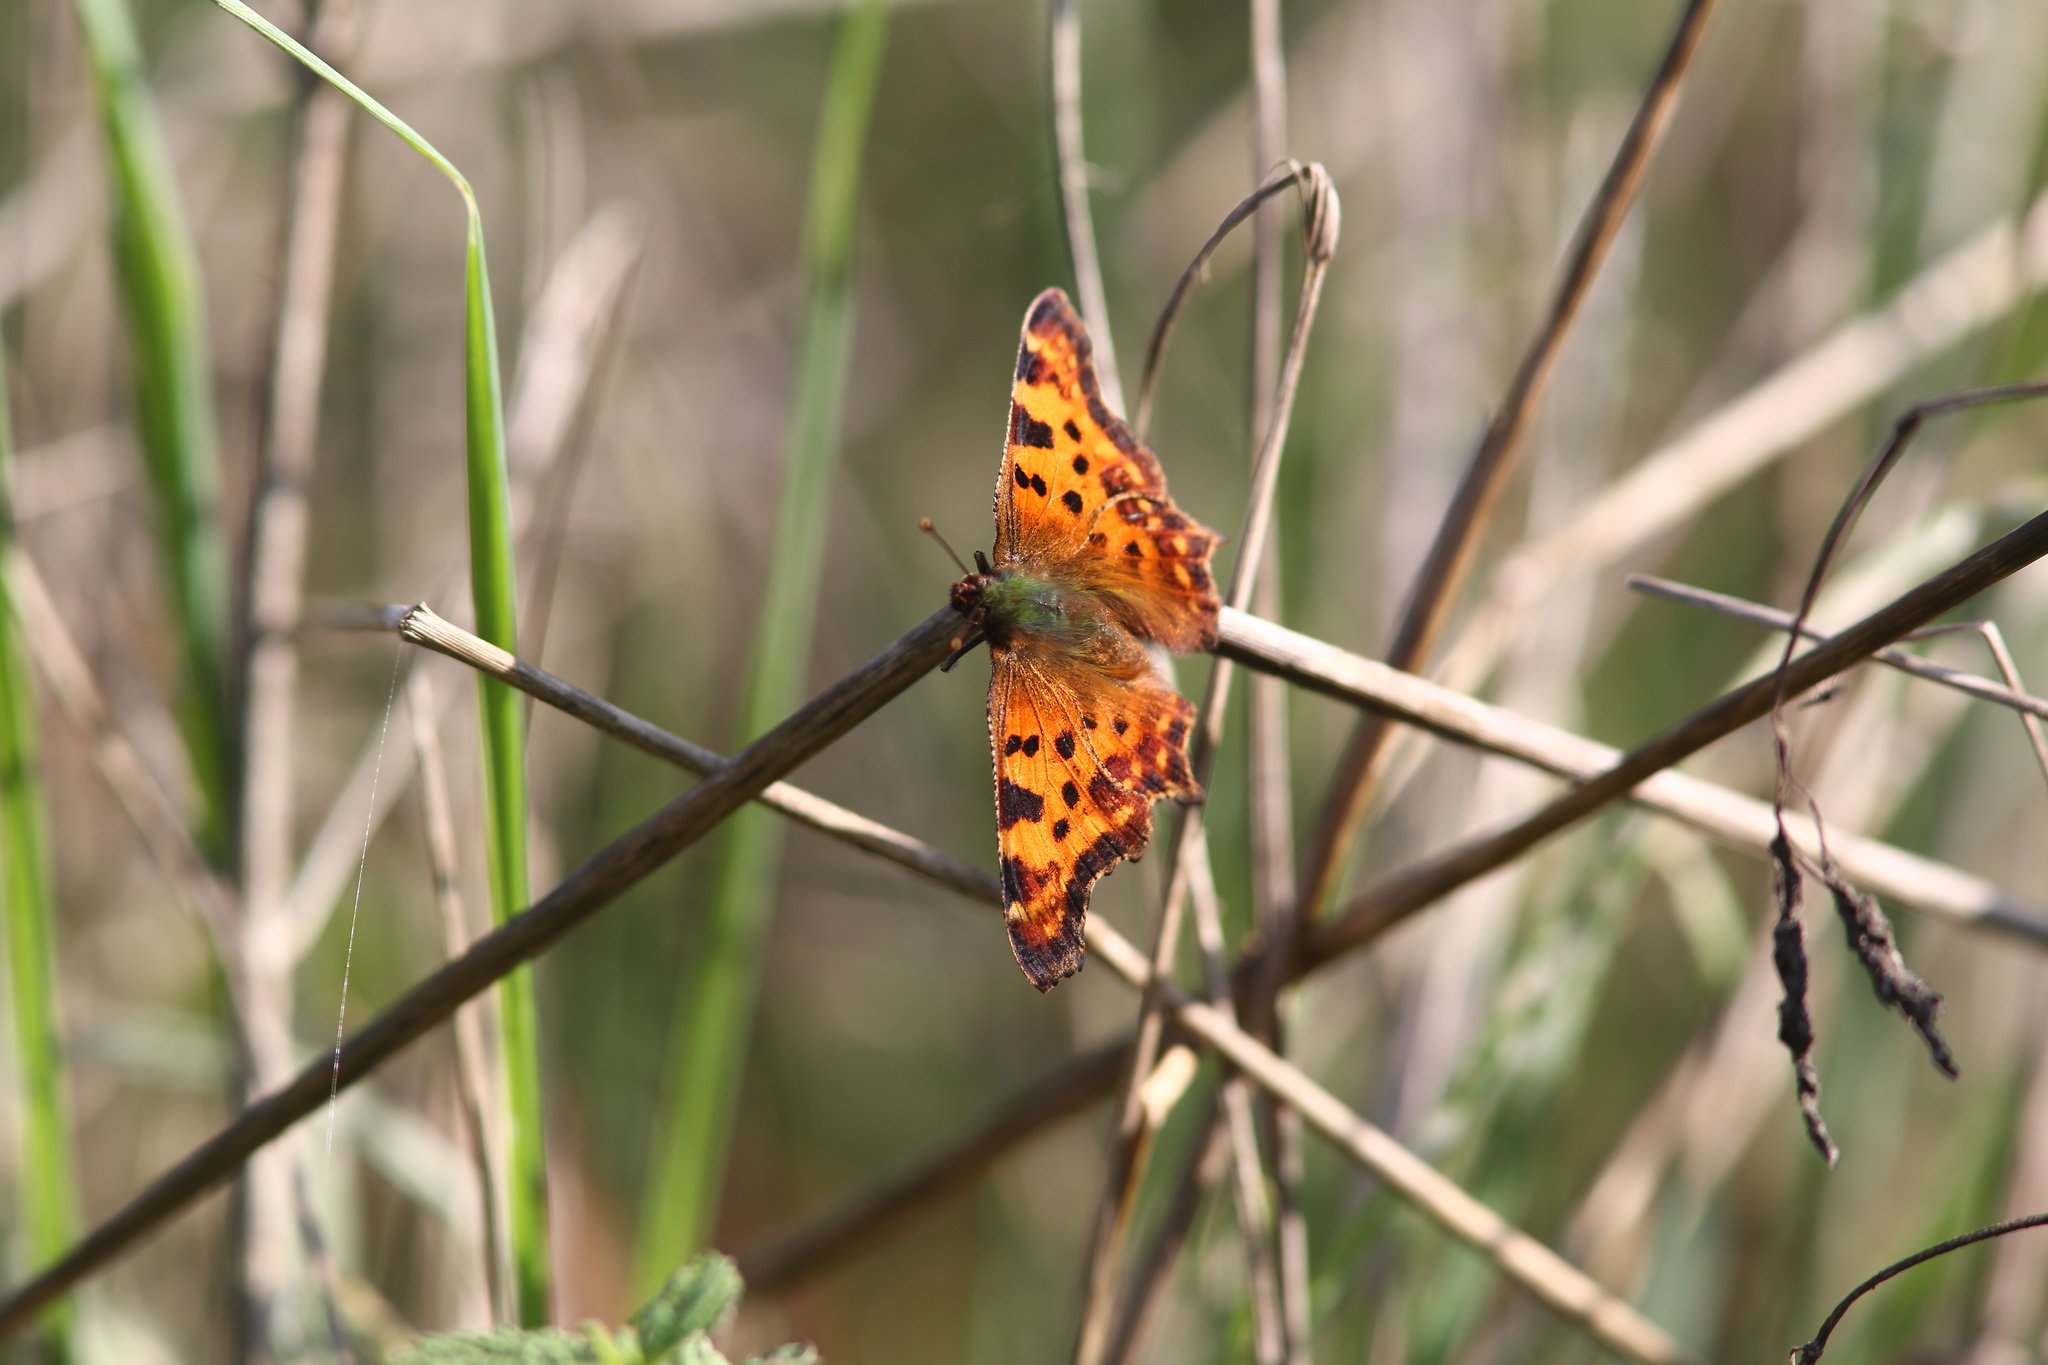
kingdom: Animalia
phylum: Arthropoda
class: Insecta
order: Lepidoptera
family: Nymphalidae
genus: Polygonia
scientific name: Polygonia c-album
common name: Comma
